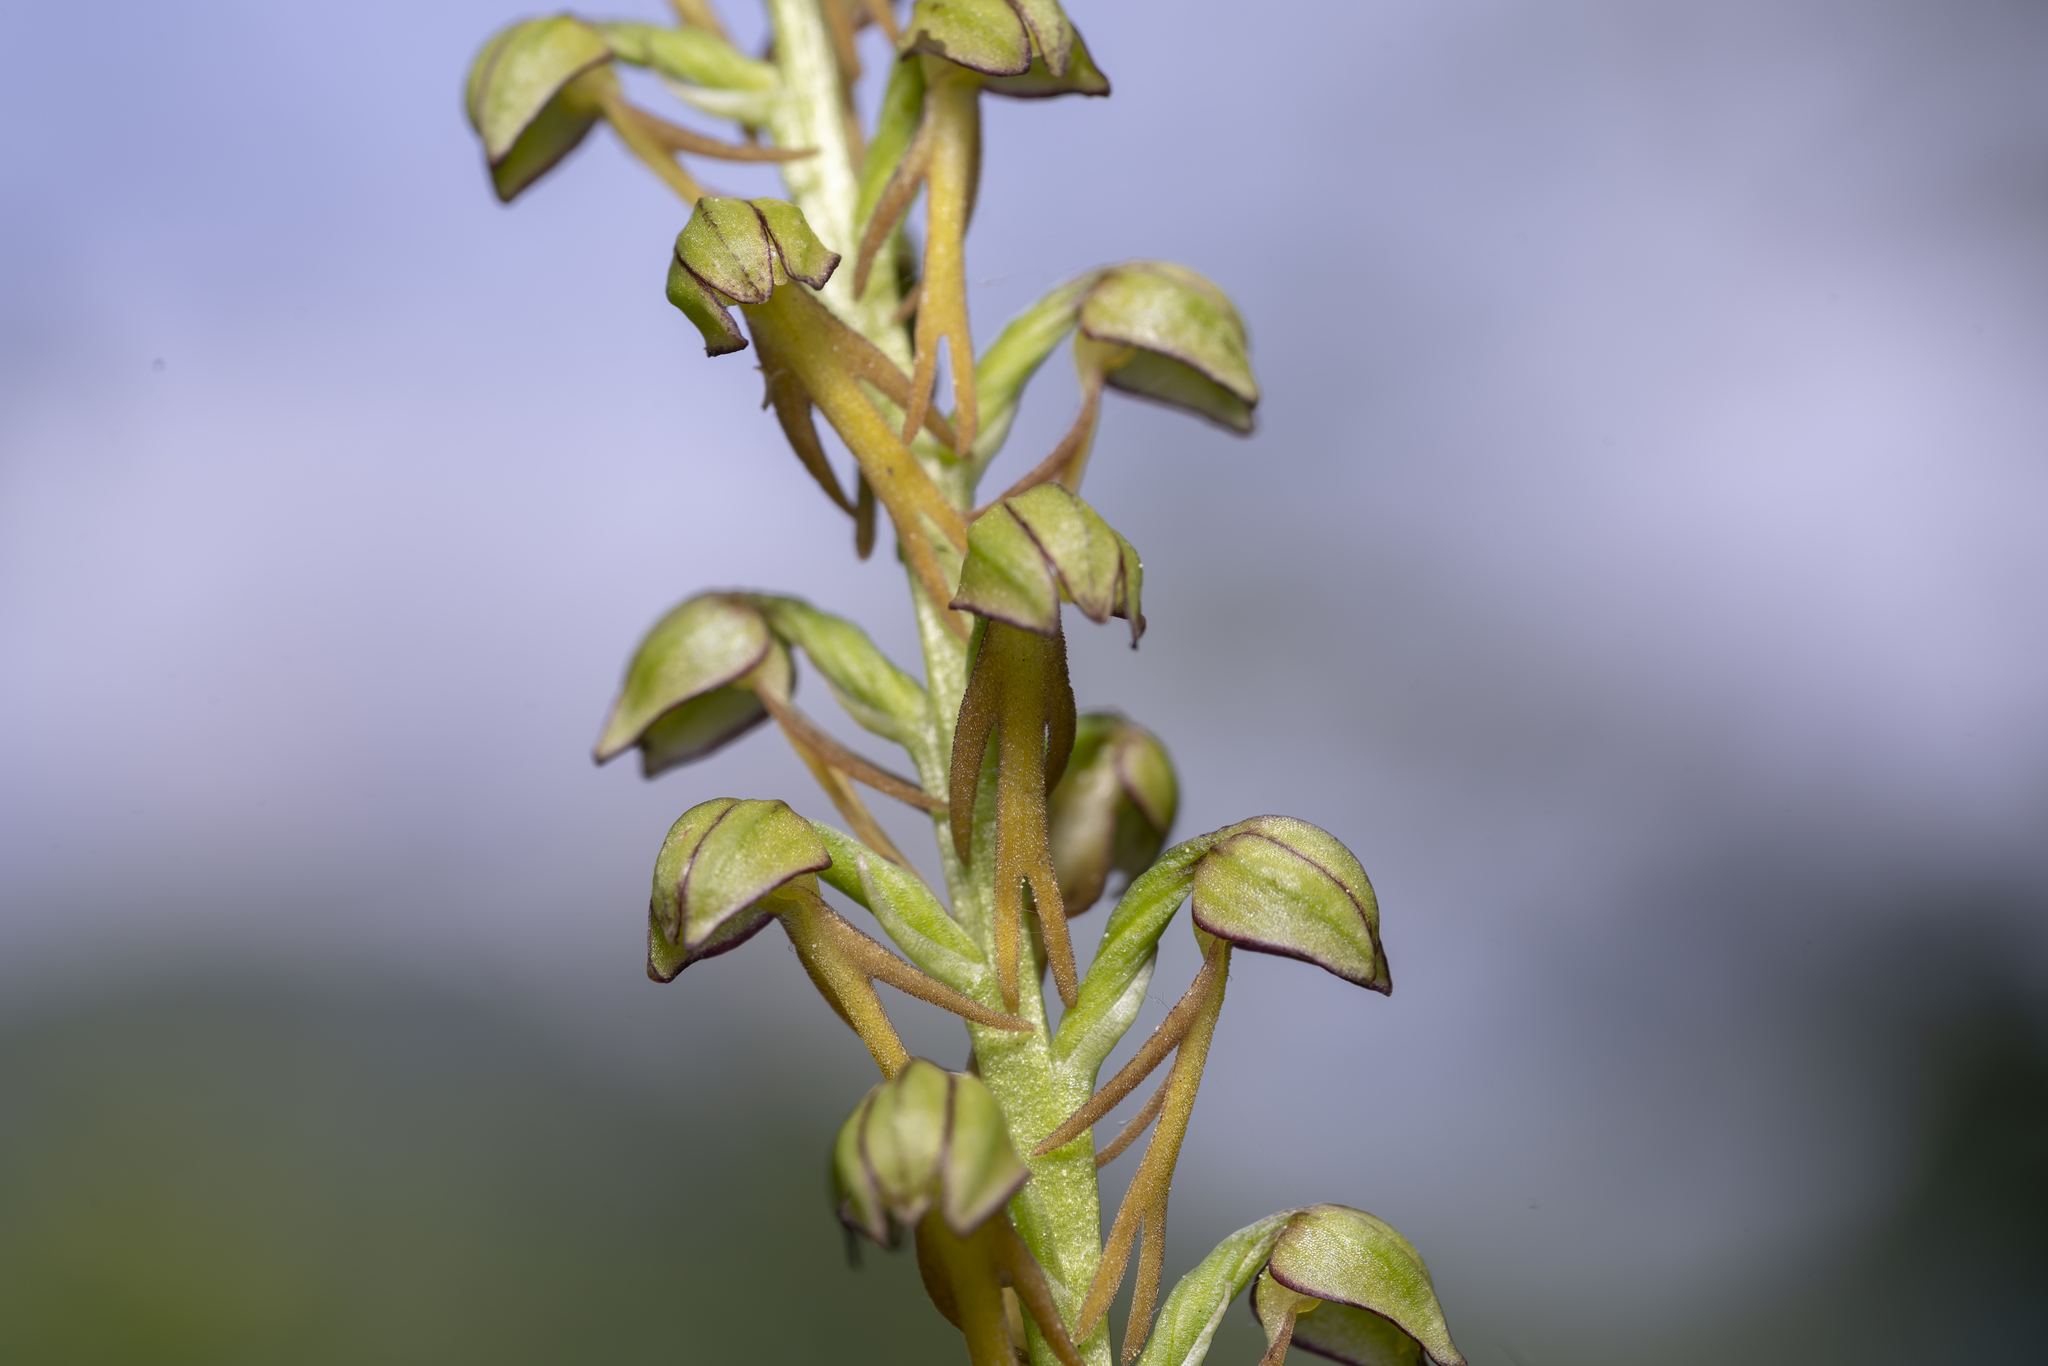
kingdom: Plantae
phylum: Tracheophyta
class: Liliopsida
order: Asparagales
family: Orchidaceae
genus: Orchis
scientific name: Orchis anthropophora
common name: Man orchid
